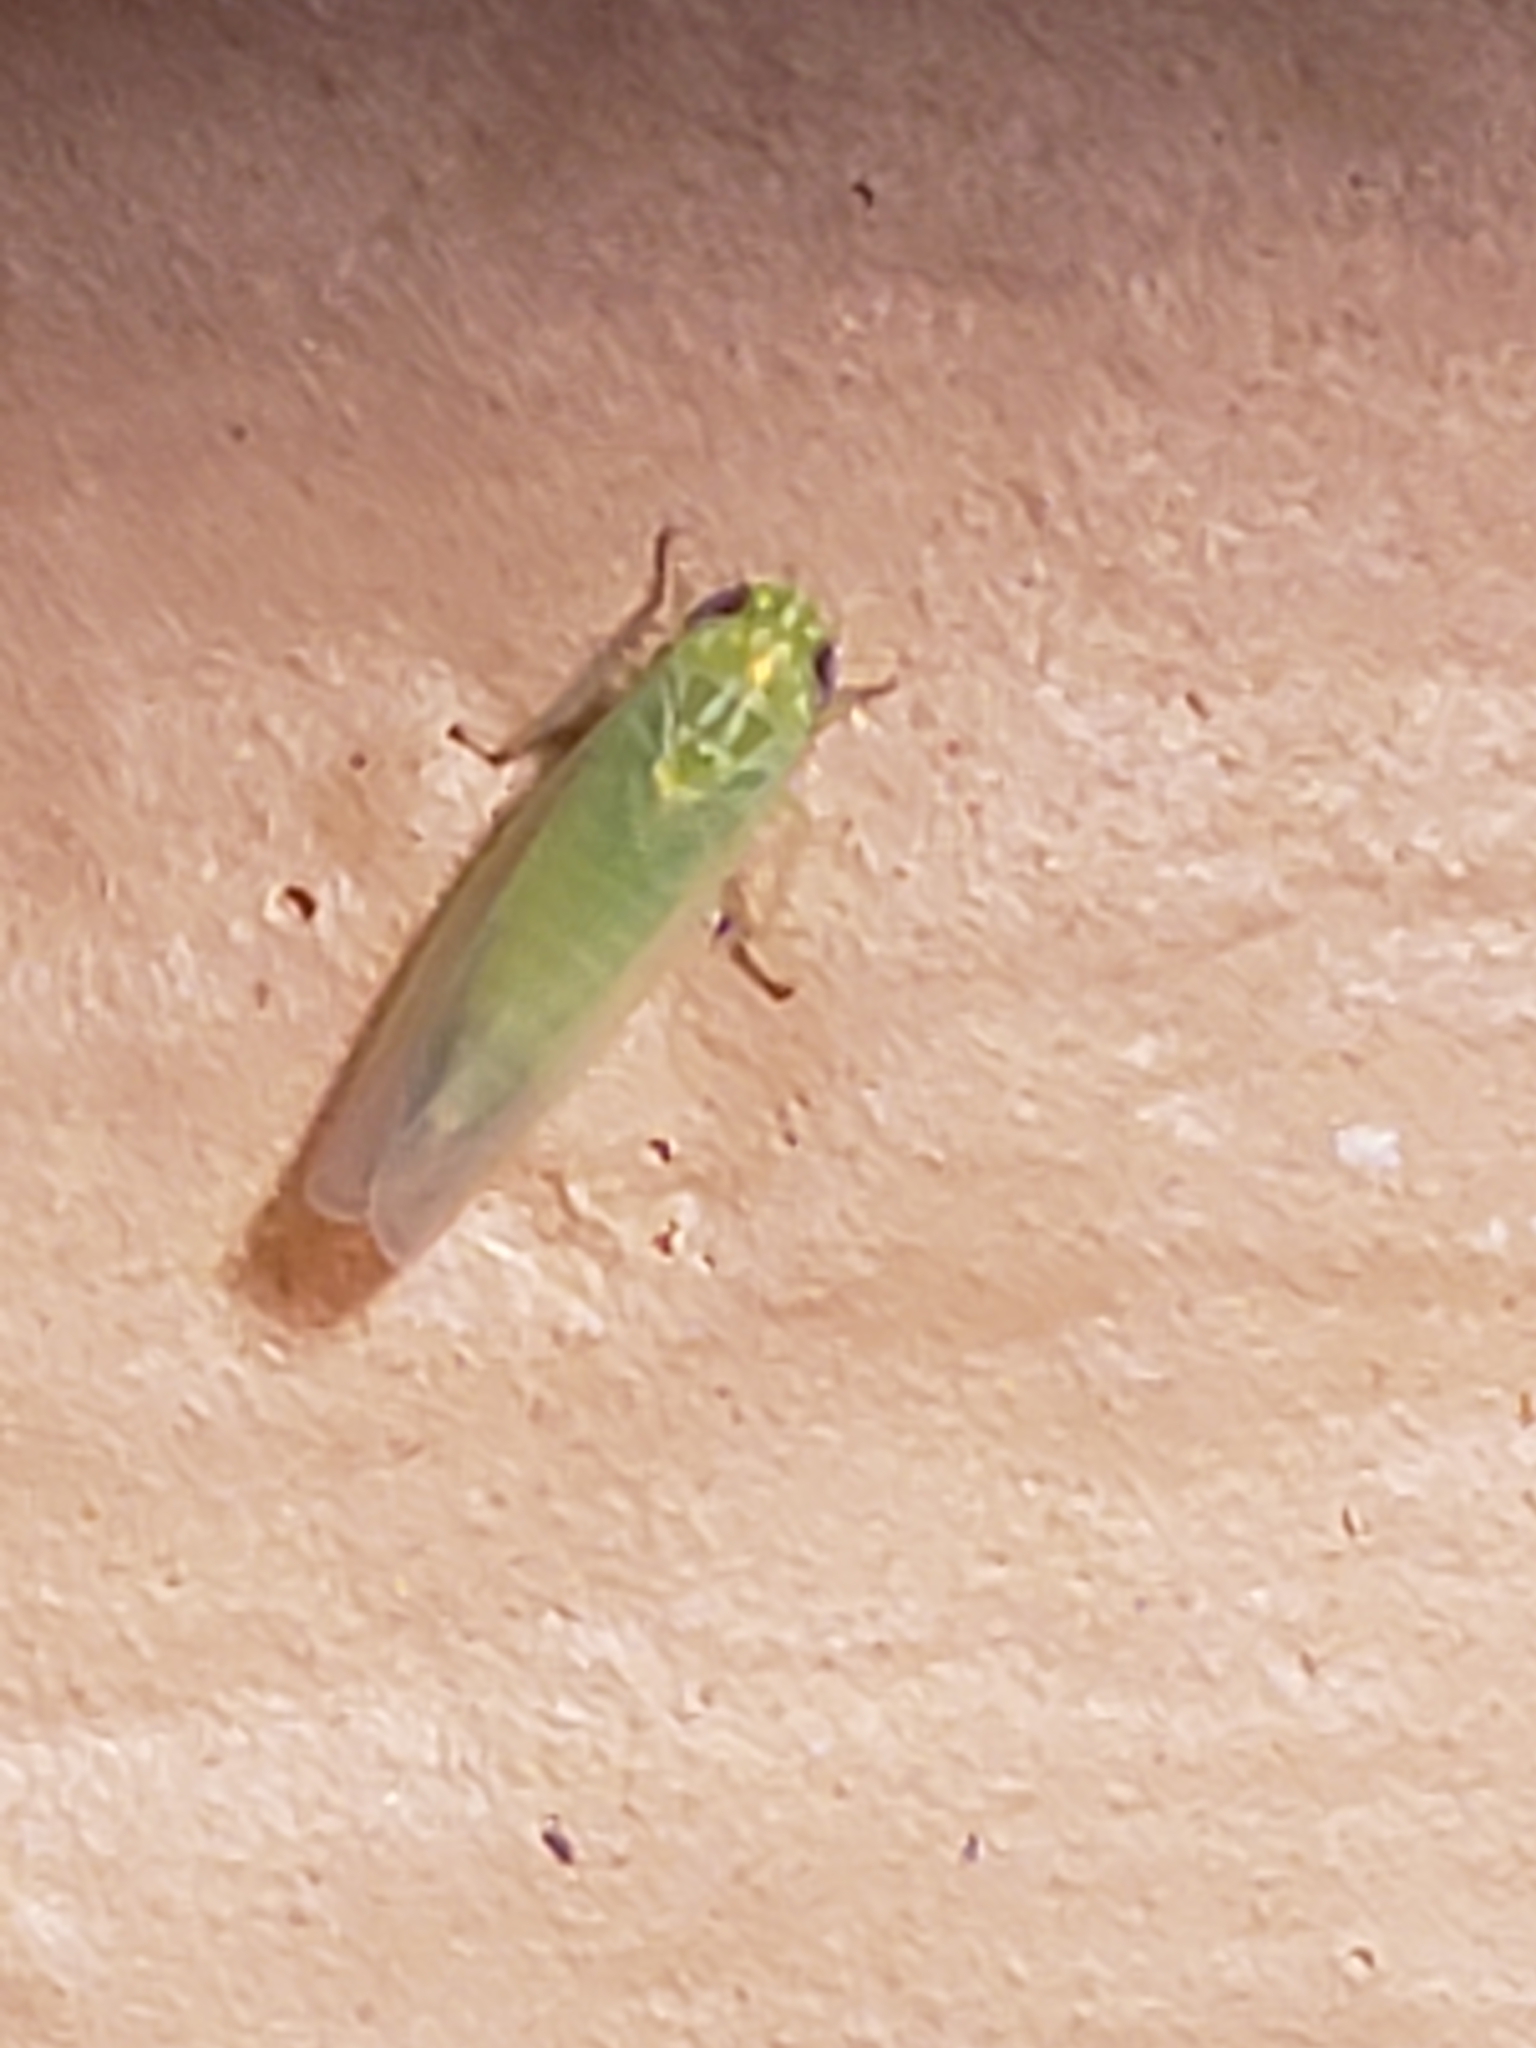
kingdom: Animalia
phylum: Arthropoda
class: Insecta
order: Hemiptera
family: Cicadellidae
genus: Empoasca
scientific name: Empoasca fabae
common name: Potato leafhopper
